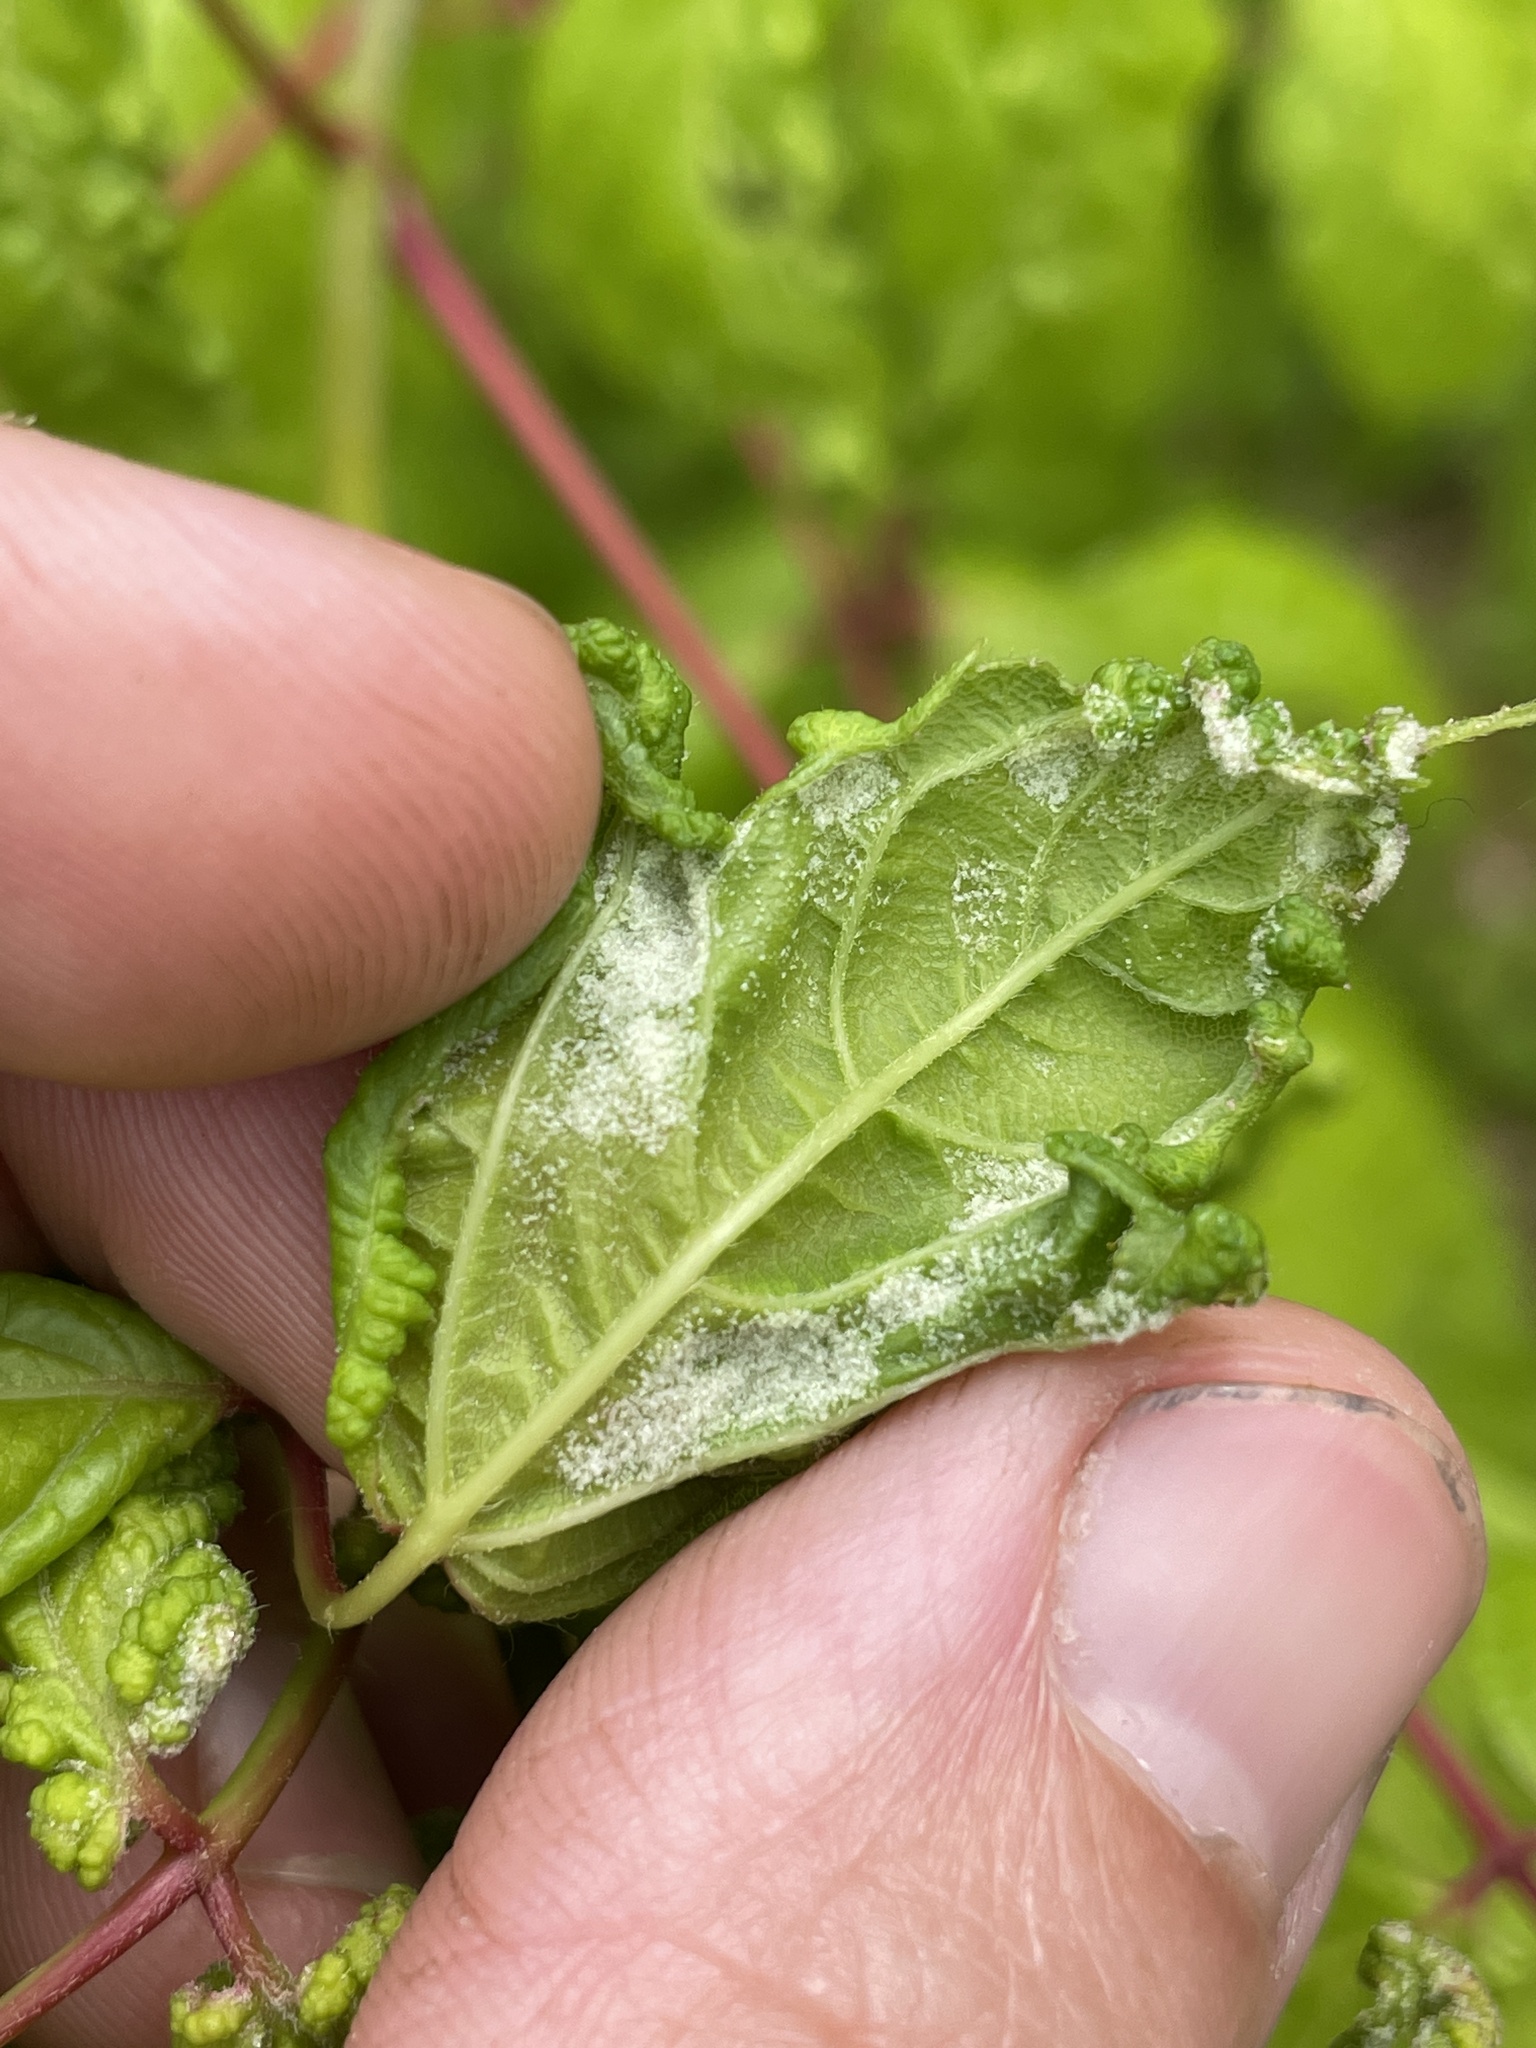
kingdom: Animalia
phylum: Arthropoda
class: Arachnida
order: Trombidiformes
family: Eriophyidae
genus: Aceria
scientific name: Aceria
